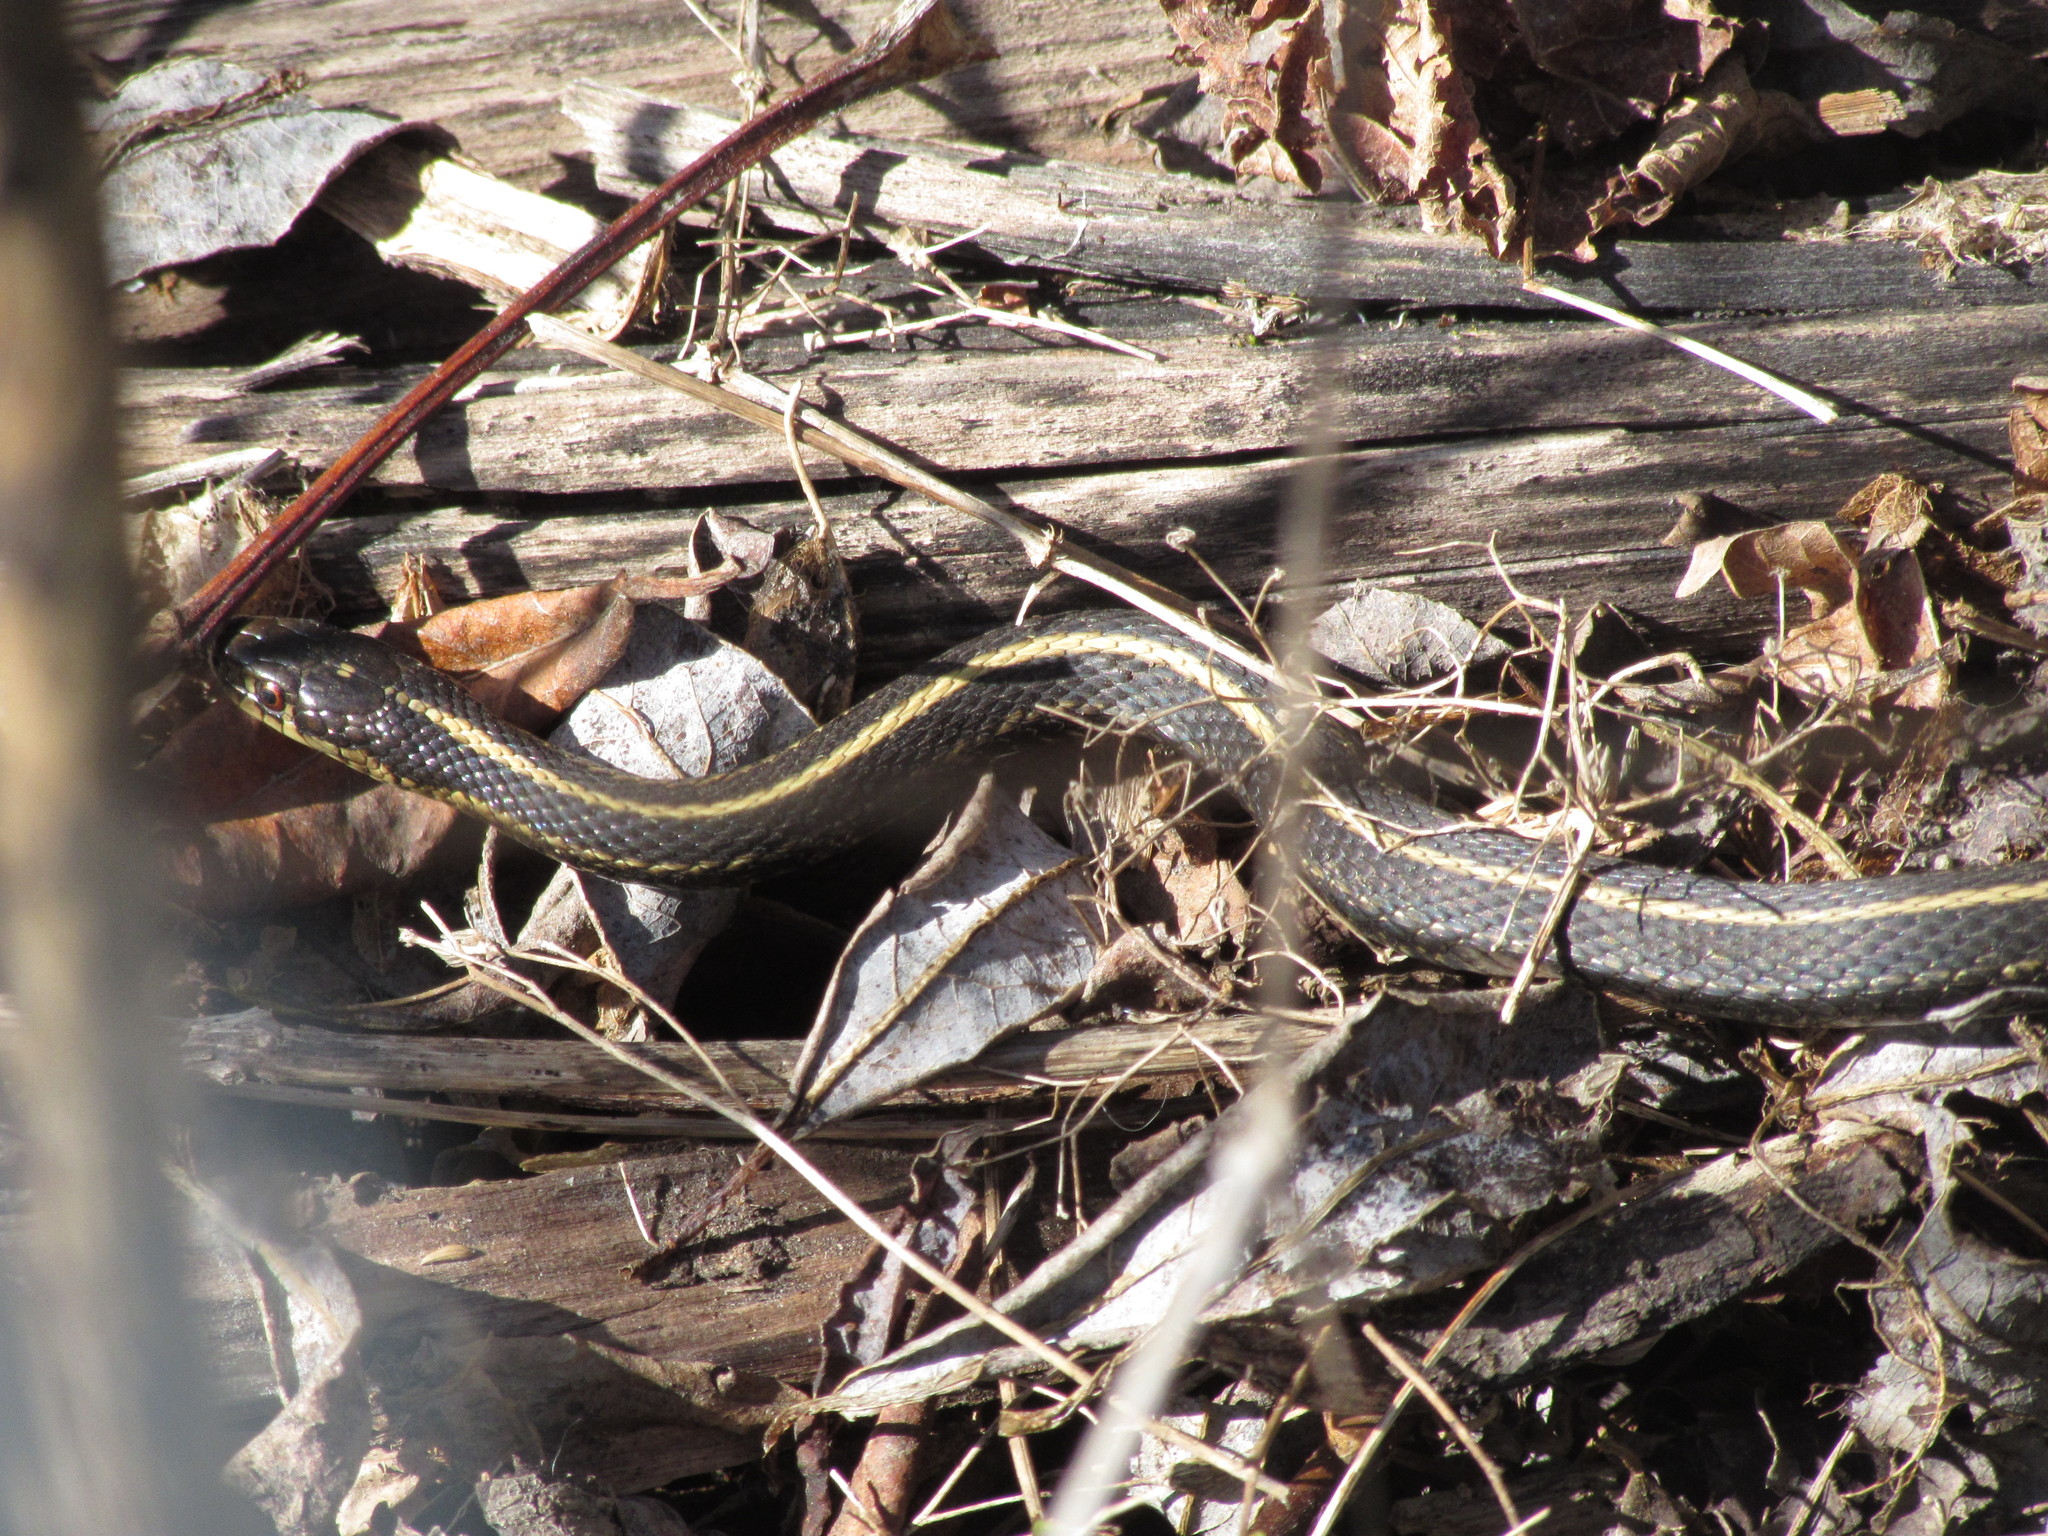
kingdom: Animalia
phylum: Chordata
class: Squamata
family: Colubridae
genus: Thamnophis
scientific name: Thamnophis ordinoides
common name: Northwestern garter snake
